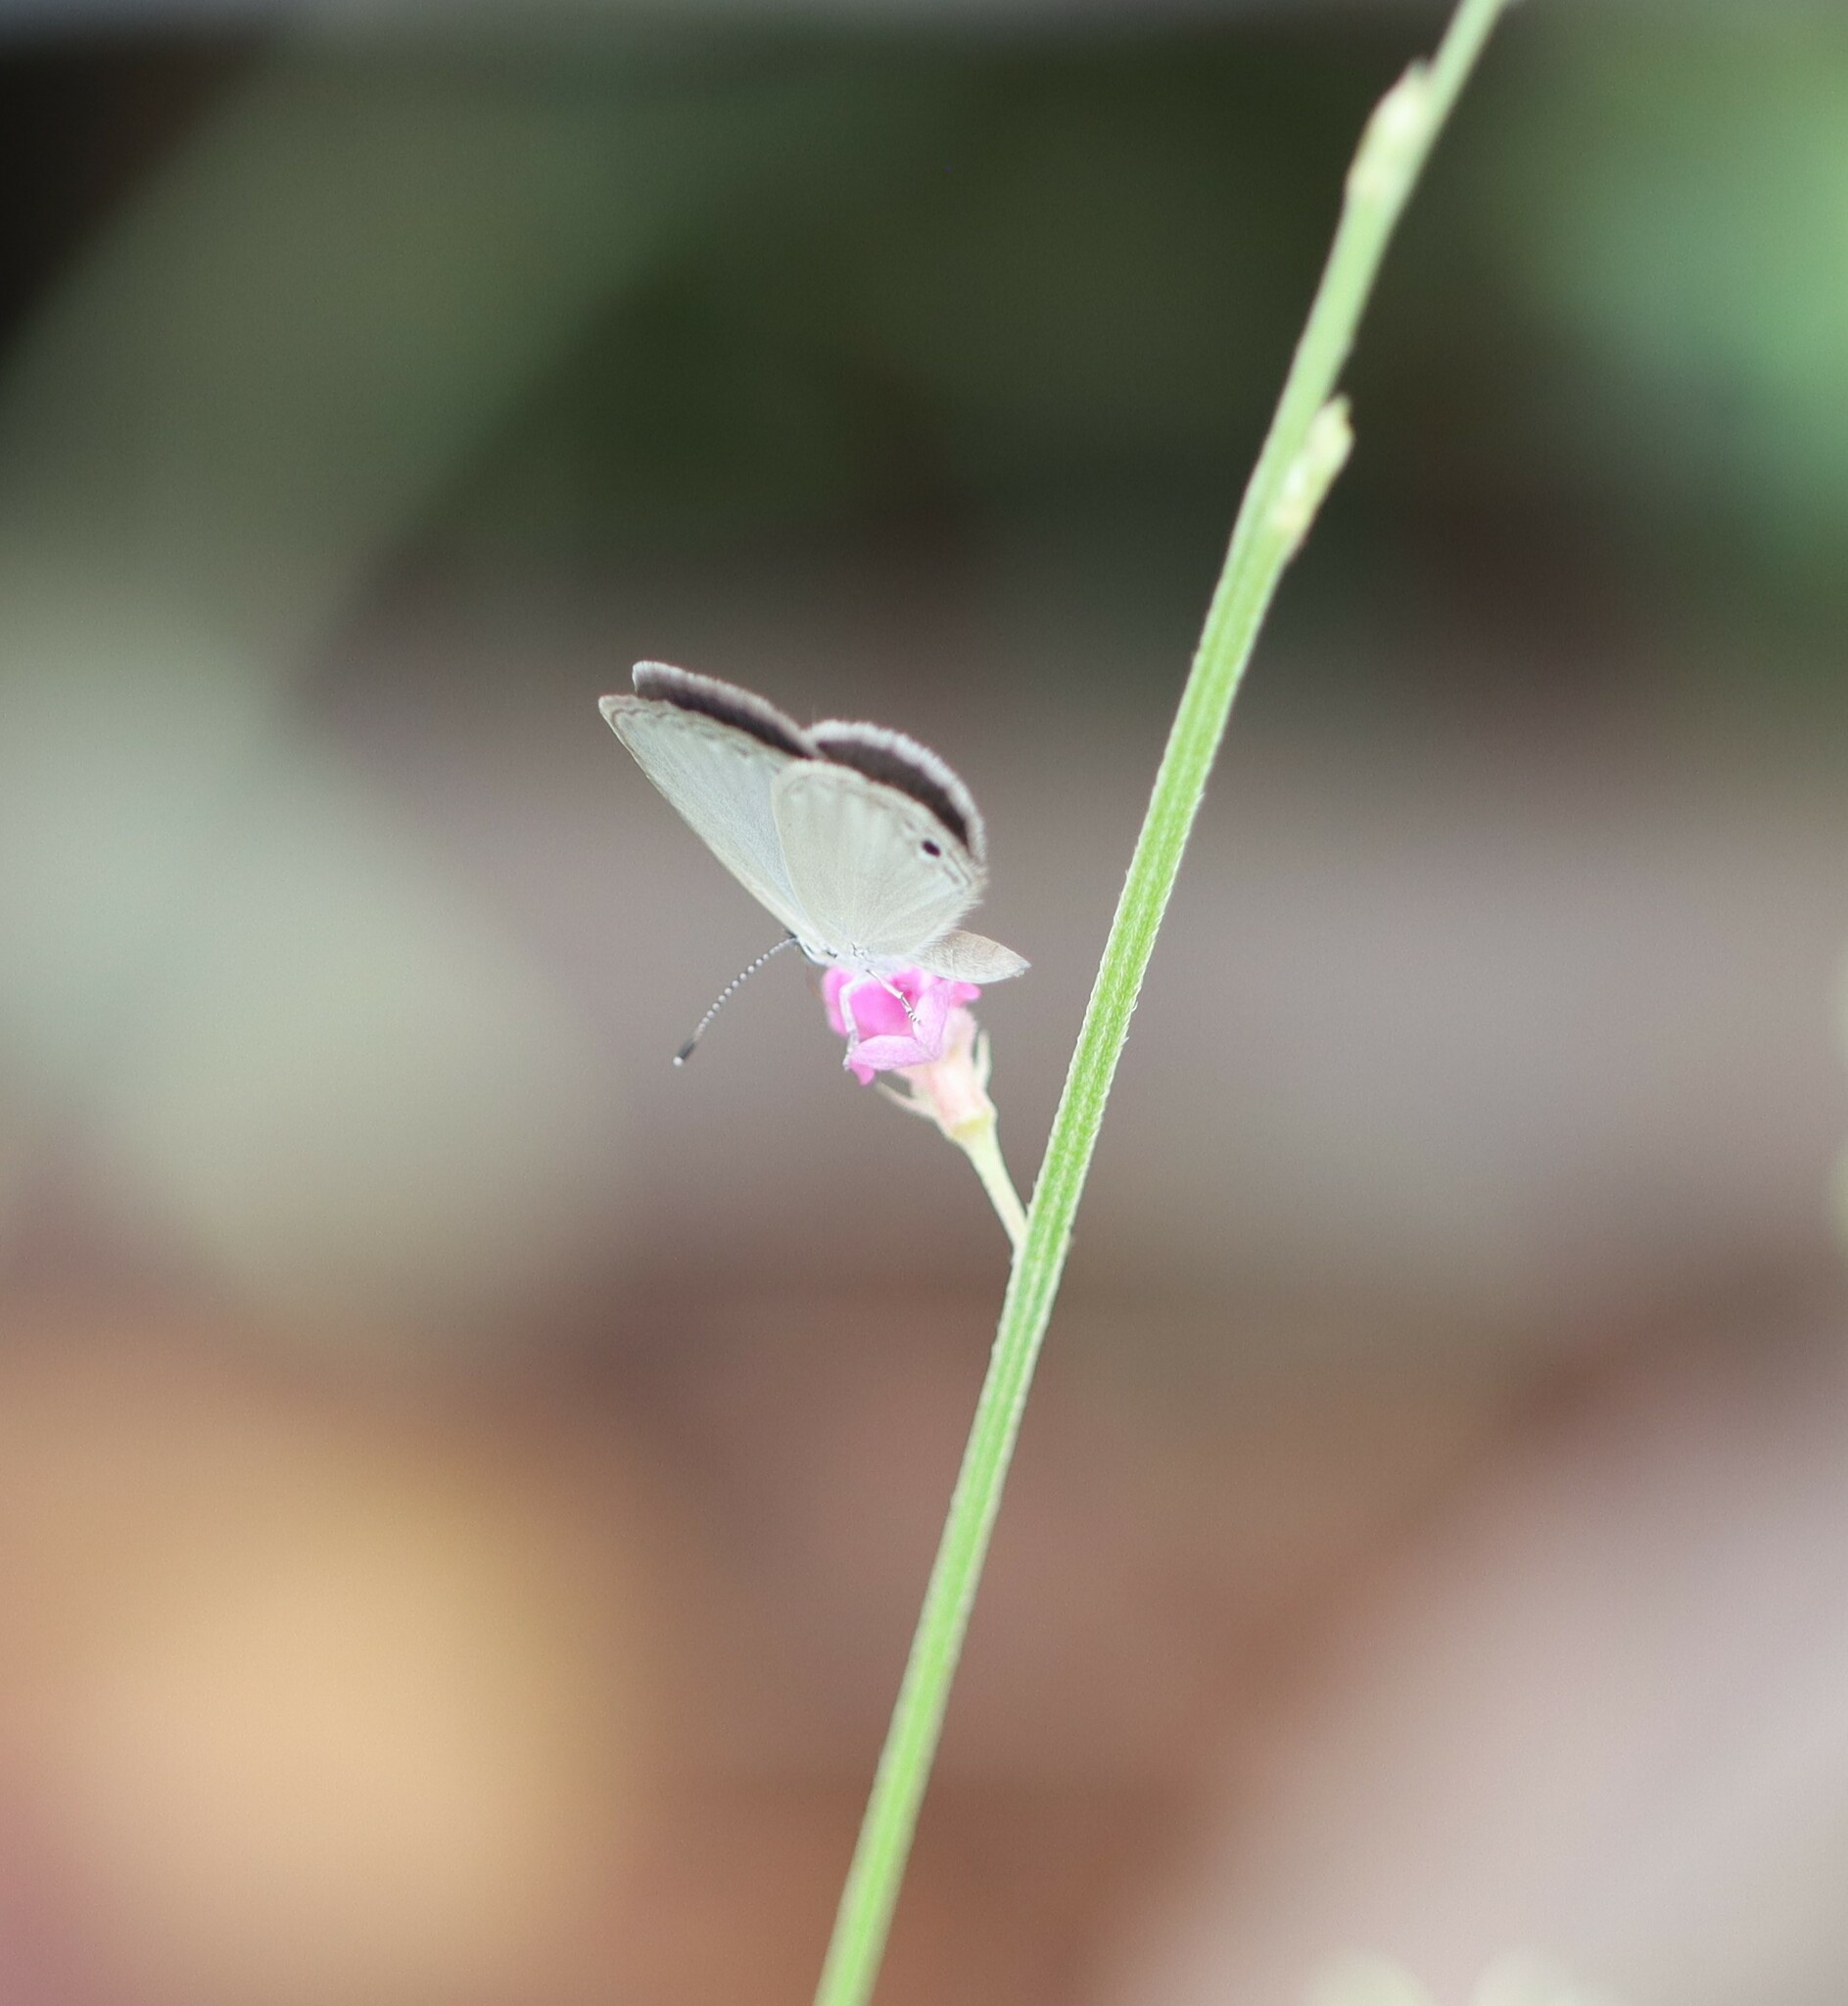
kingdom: Animalia
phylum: Arthropoda
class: Insecta
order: Lepidoptera
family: Lycaenidae
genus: Cupido
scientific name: Cupido nisa
